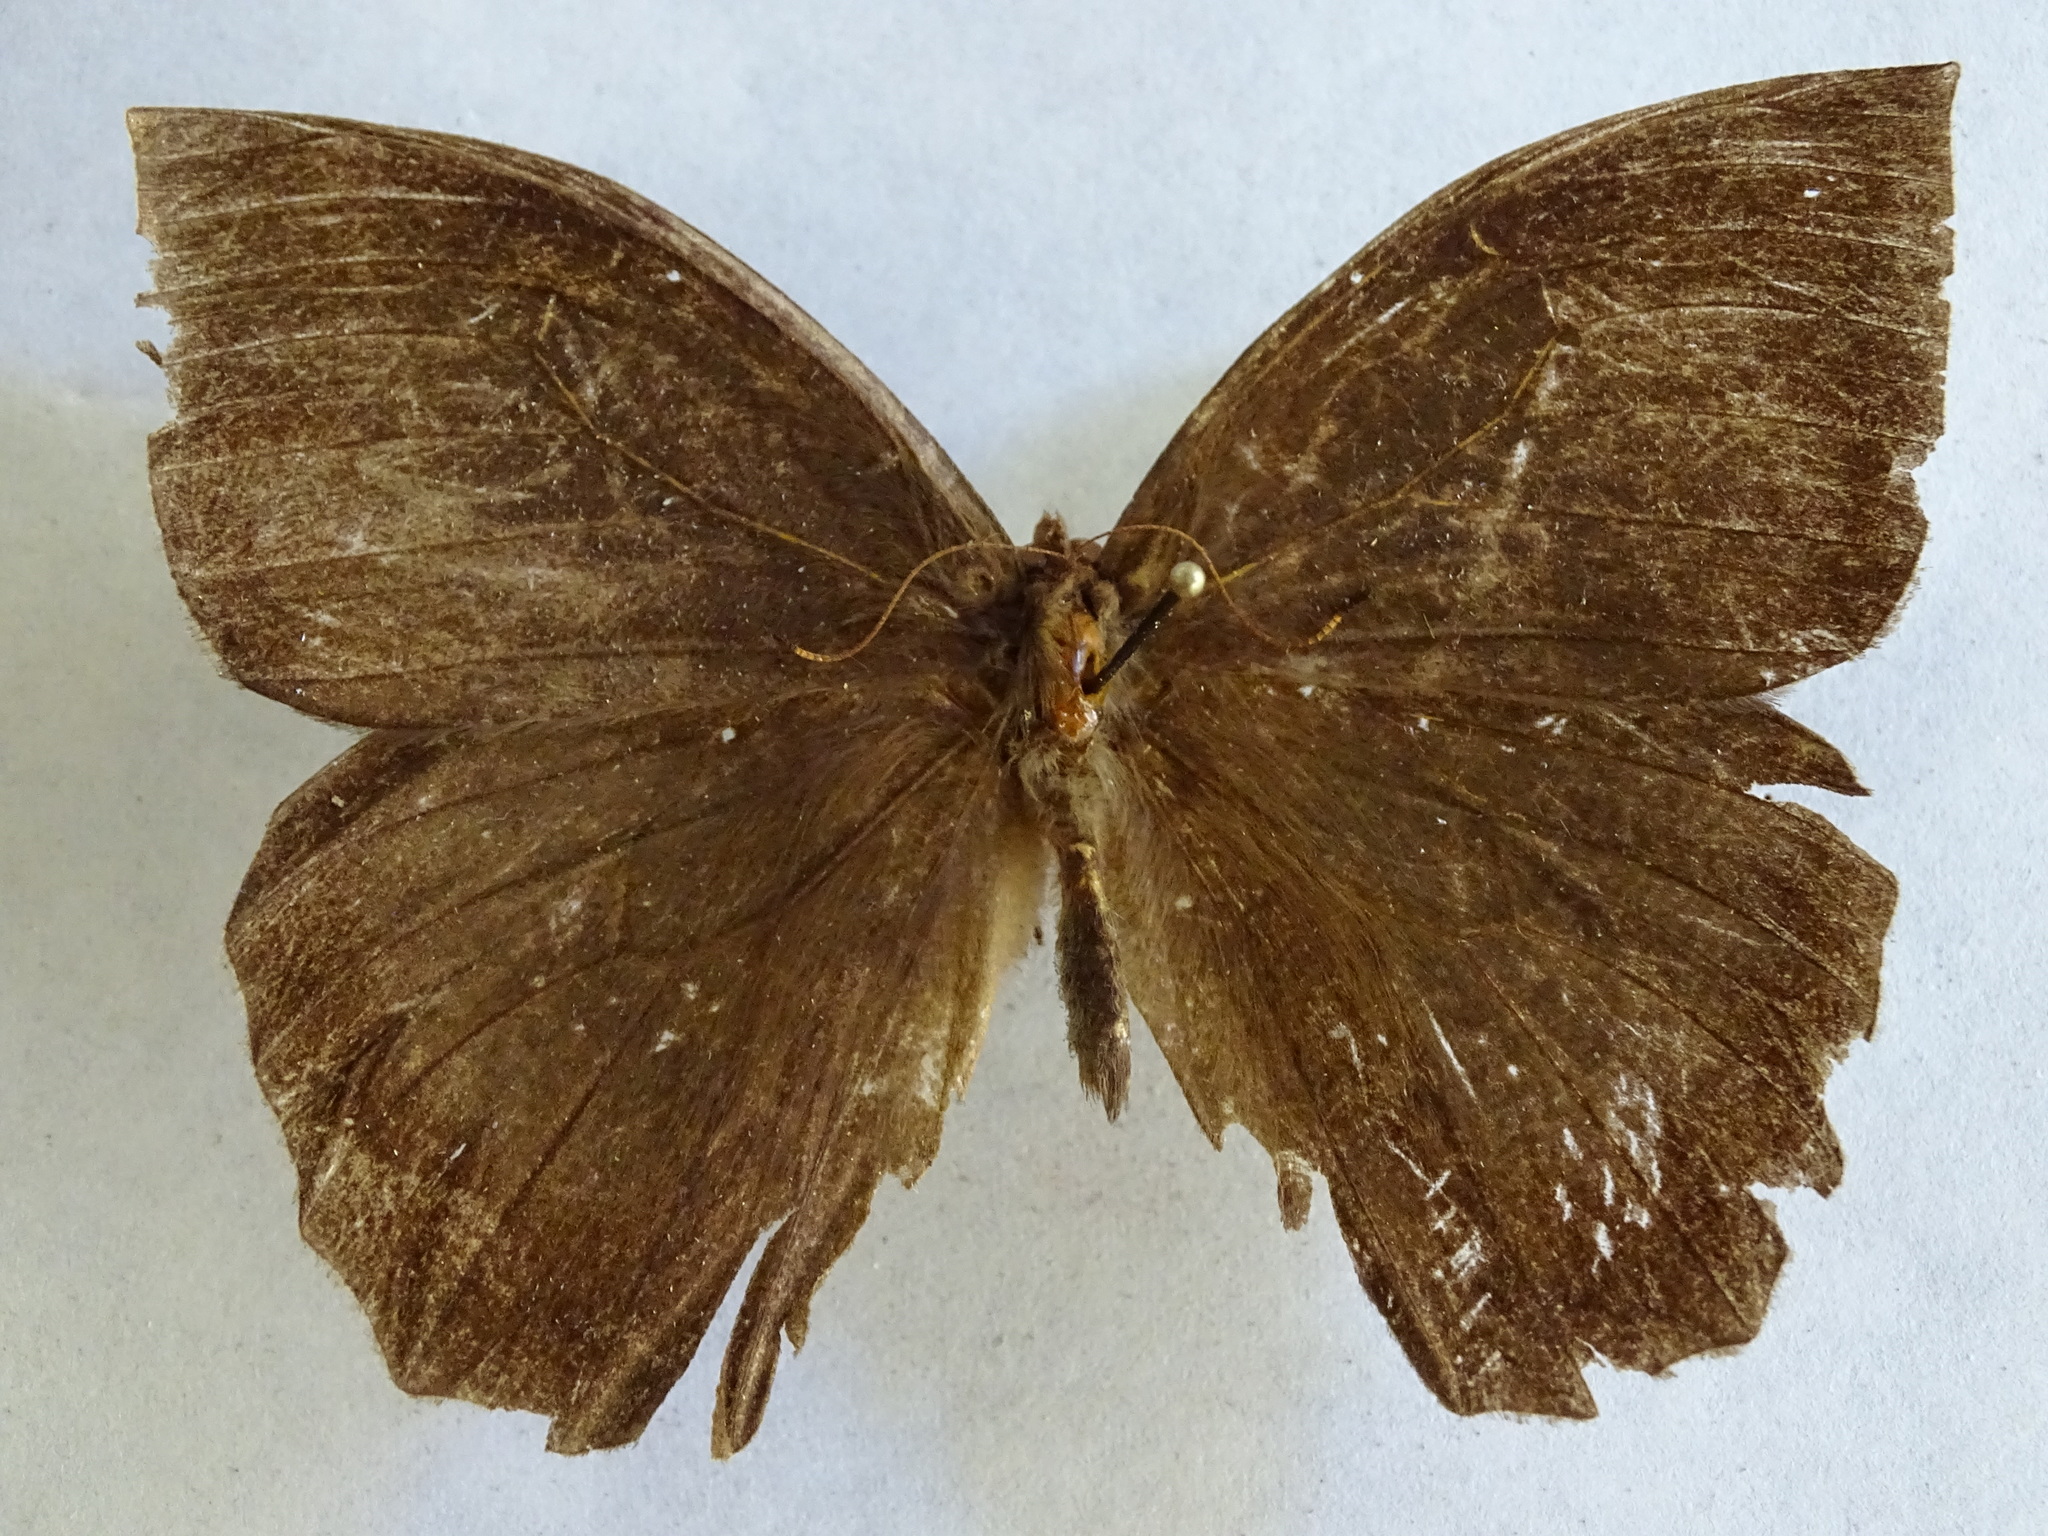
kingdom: Animalia
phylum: Arthropoda
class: Insecta
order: Lepidoptera
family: Nymphalidae
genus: Taygetis
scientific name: Taygetis mermeria
